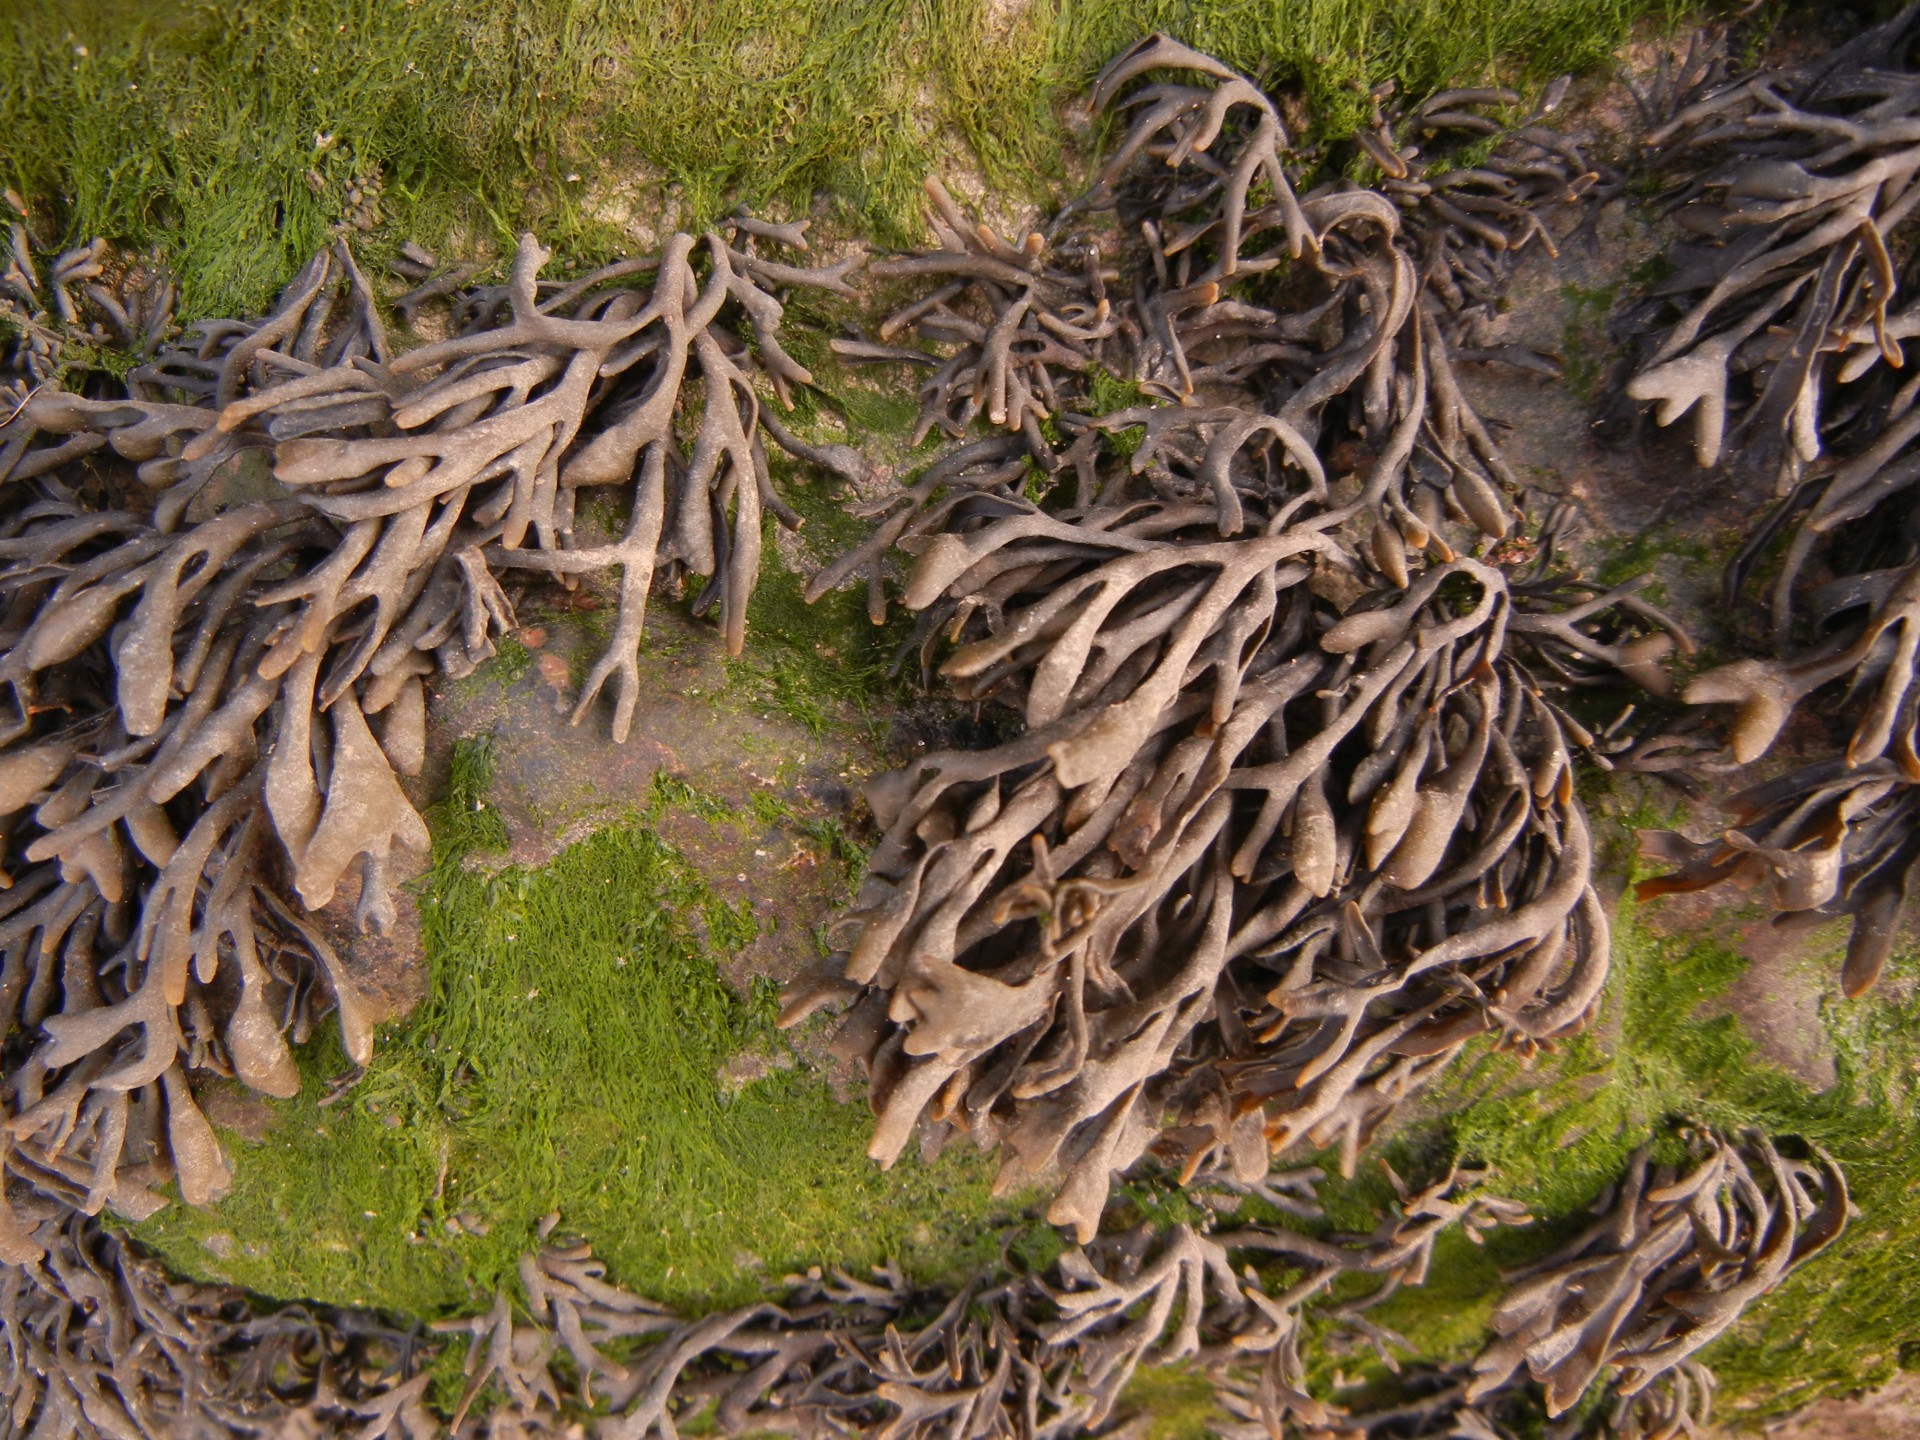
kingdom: Chromista
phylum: Ochrophyta
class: Phaeophyceae
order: Fucales
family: Fucaceae
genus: Pelvetia
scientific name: Pelvetia canaliculata
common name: Channelled wrack
